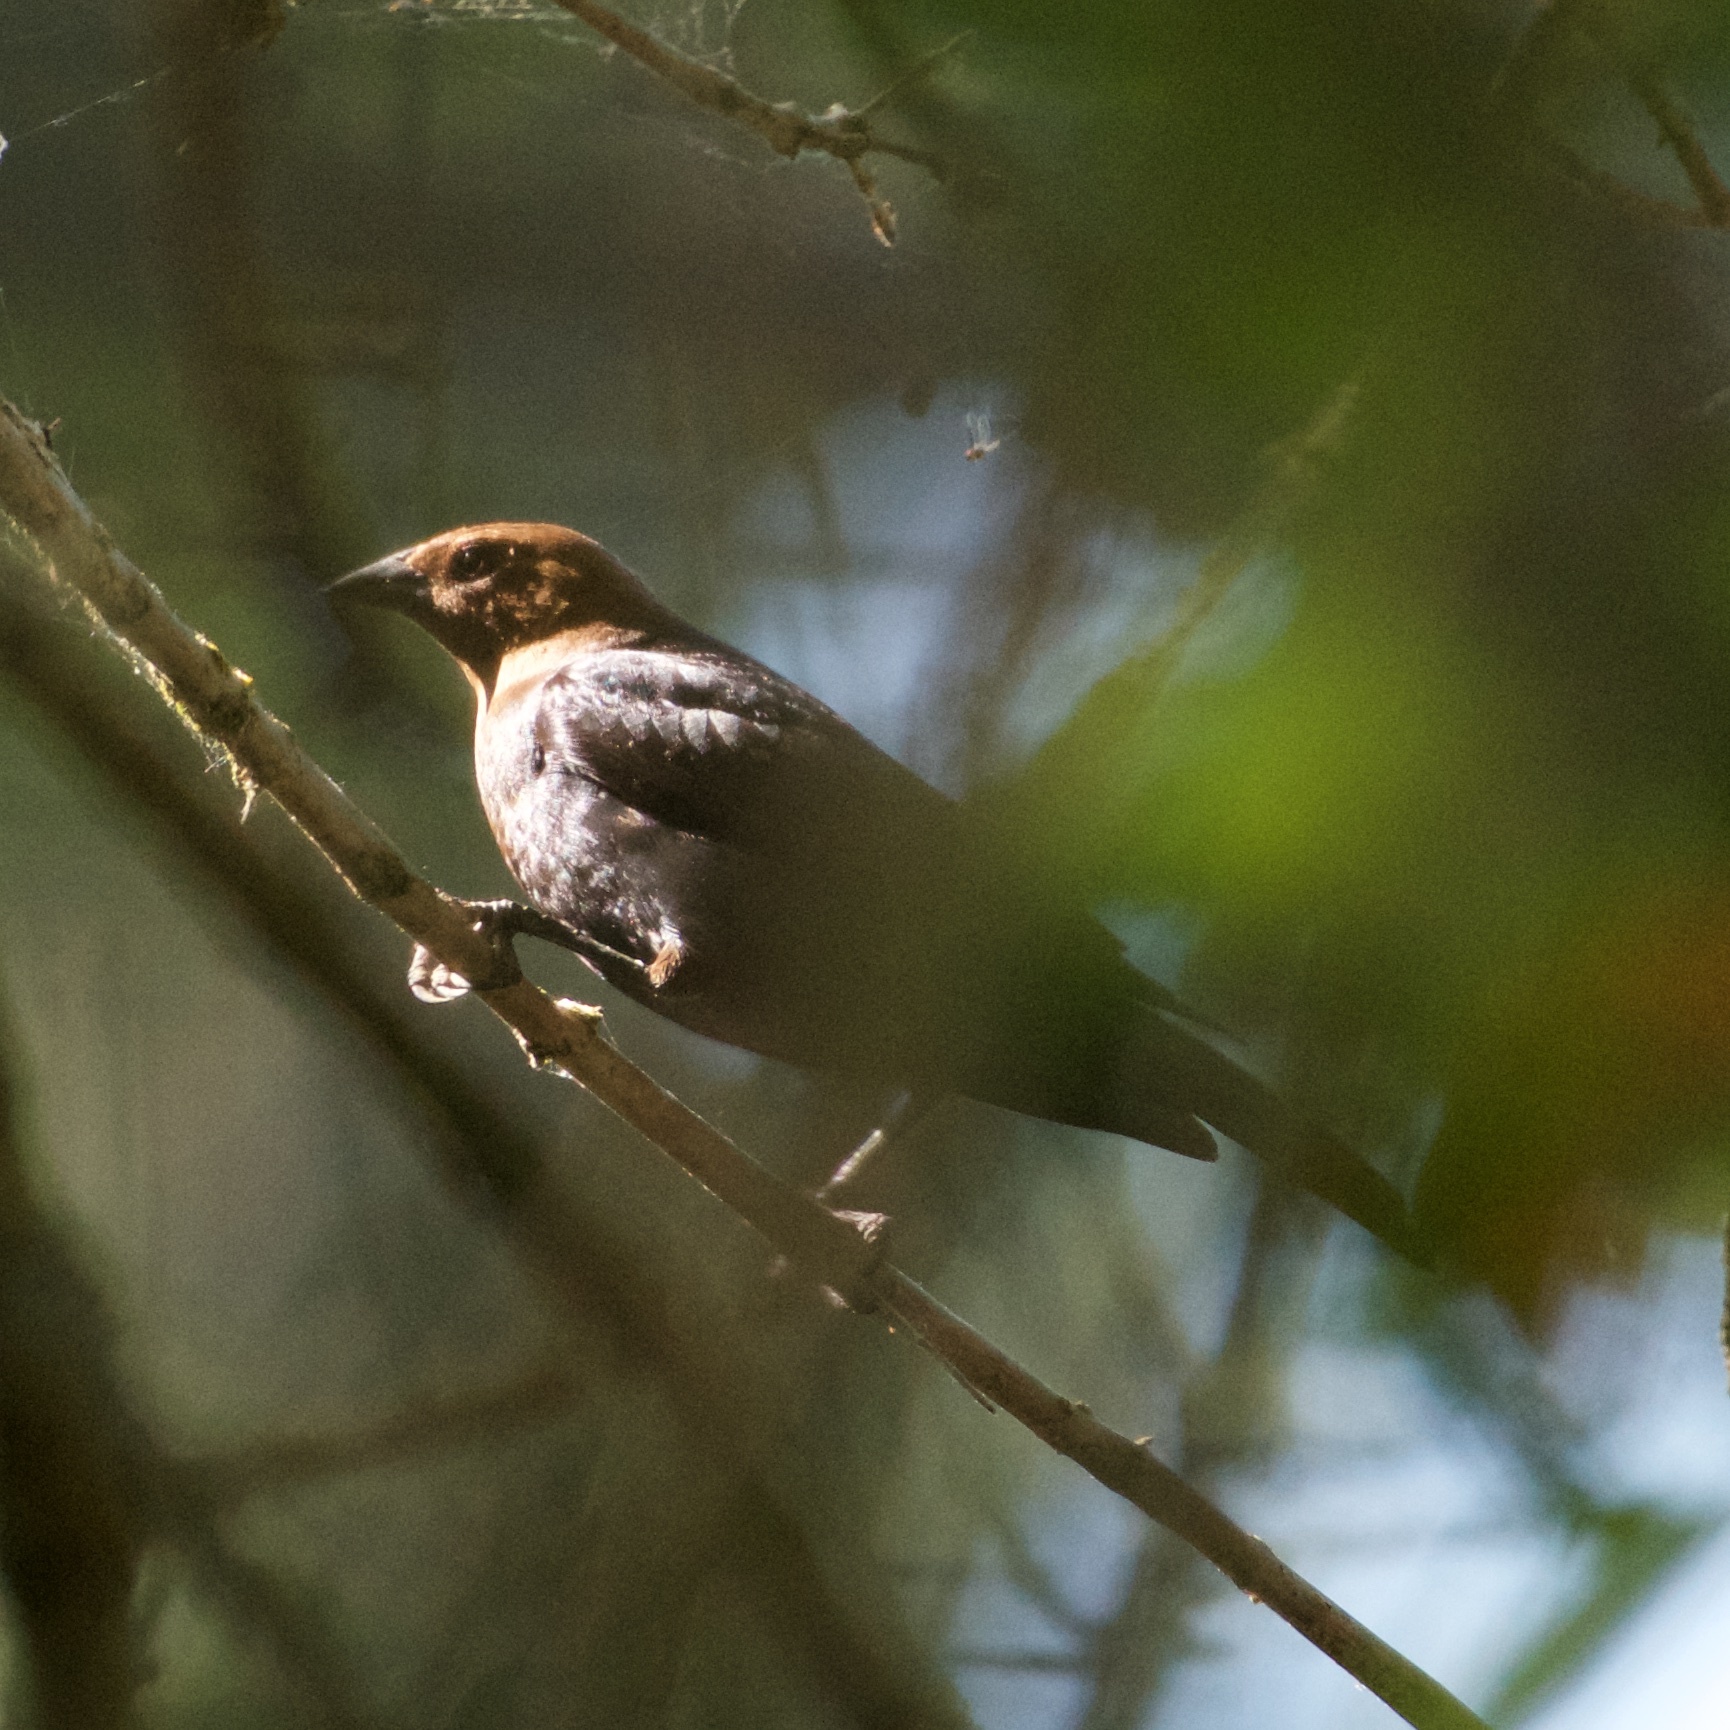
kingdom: Animalia
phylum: Chordata
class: Aves
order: Passeriformes
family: Icteridae
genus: Molothrus
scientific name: Molothrus ater
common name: Brown-headed cowbird
